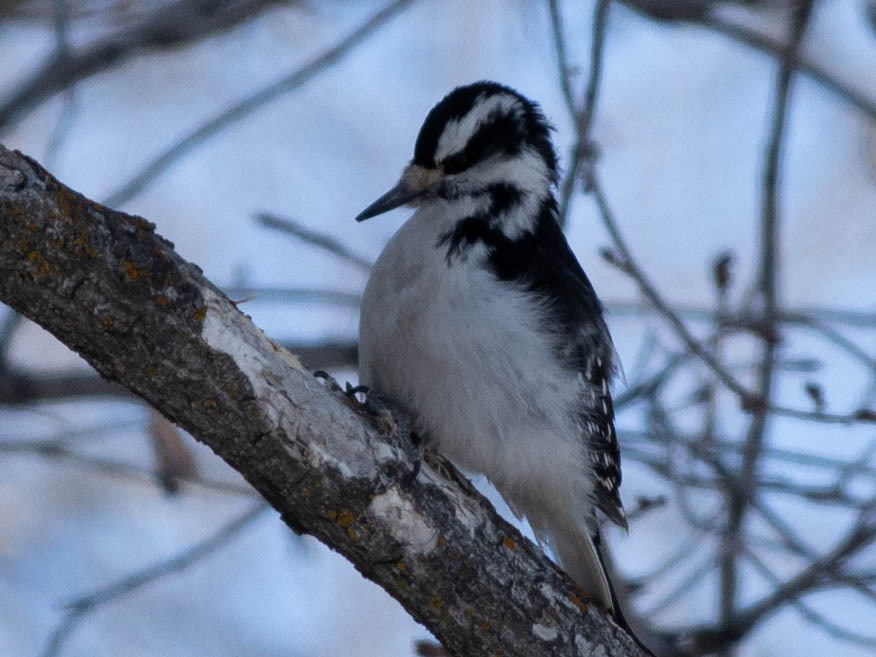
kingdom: Animalia
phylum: Chordata
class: Aves
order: Piciformes
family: Picidae
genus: Leuconotopicus
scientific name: Leuconotopicus villosus
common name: Hairy woodpecker
